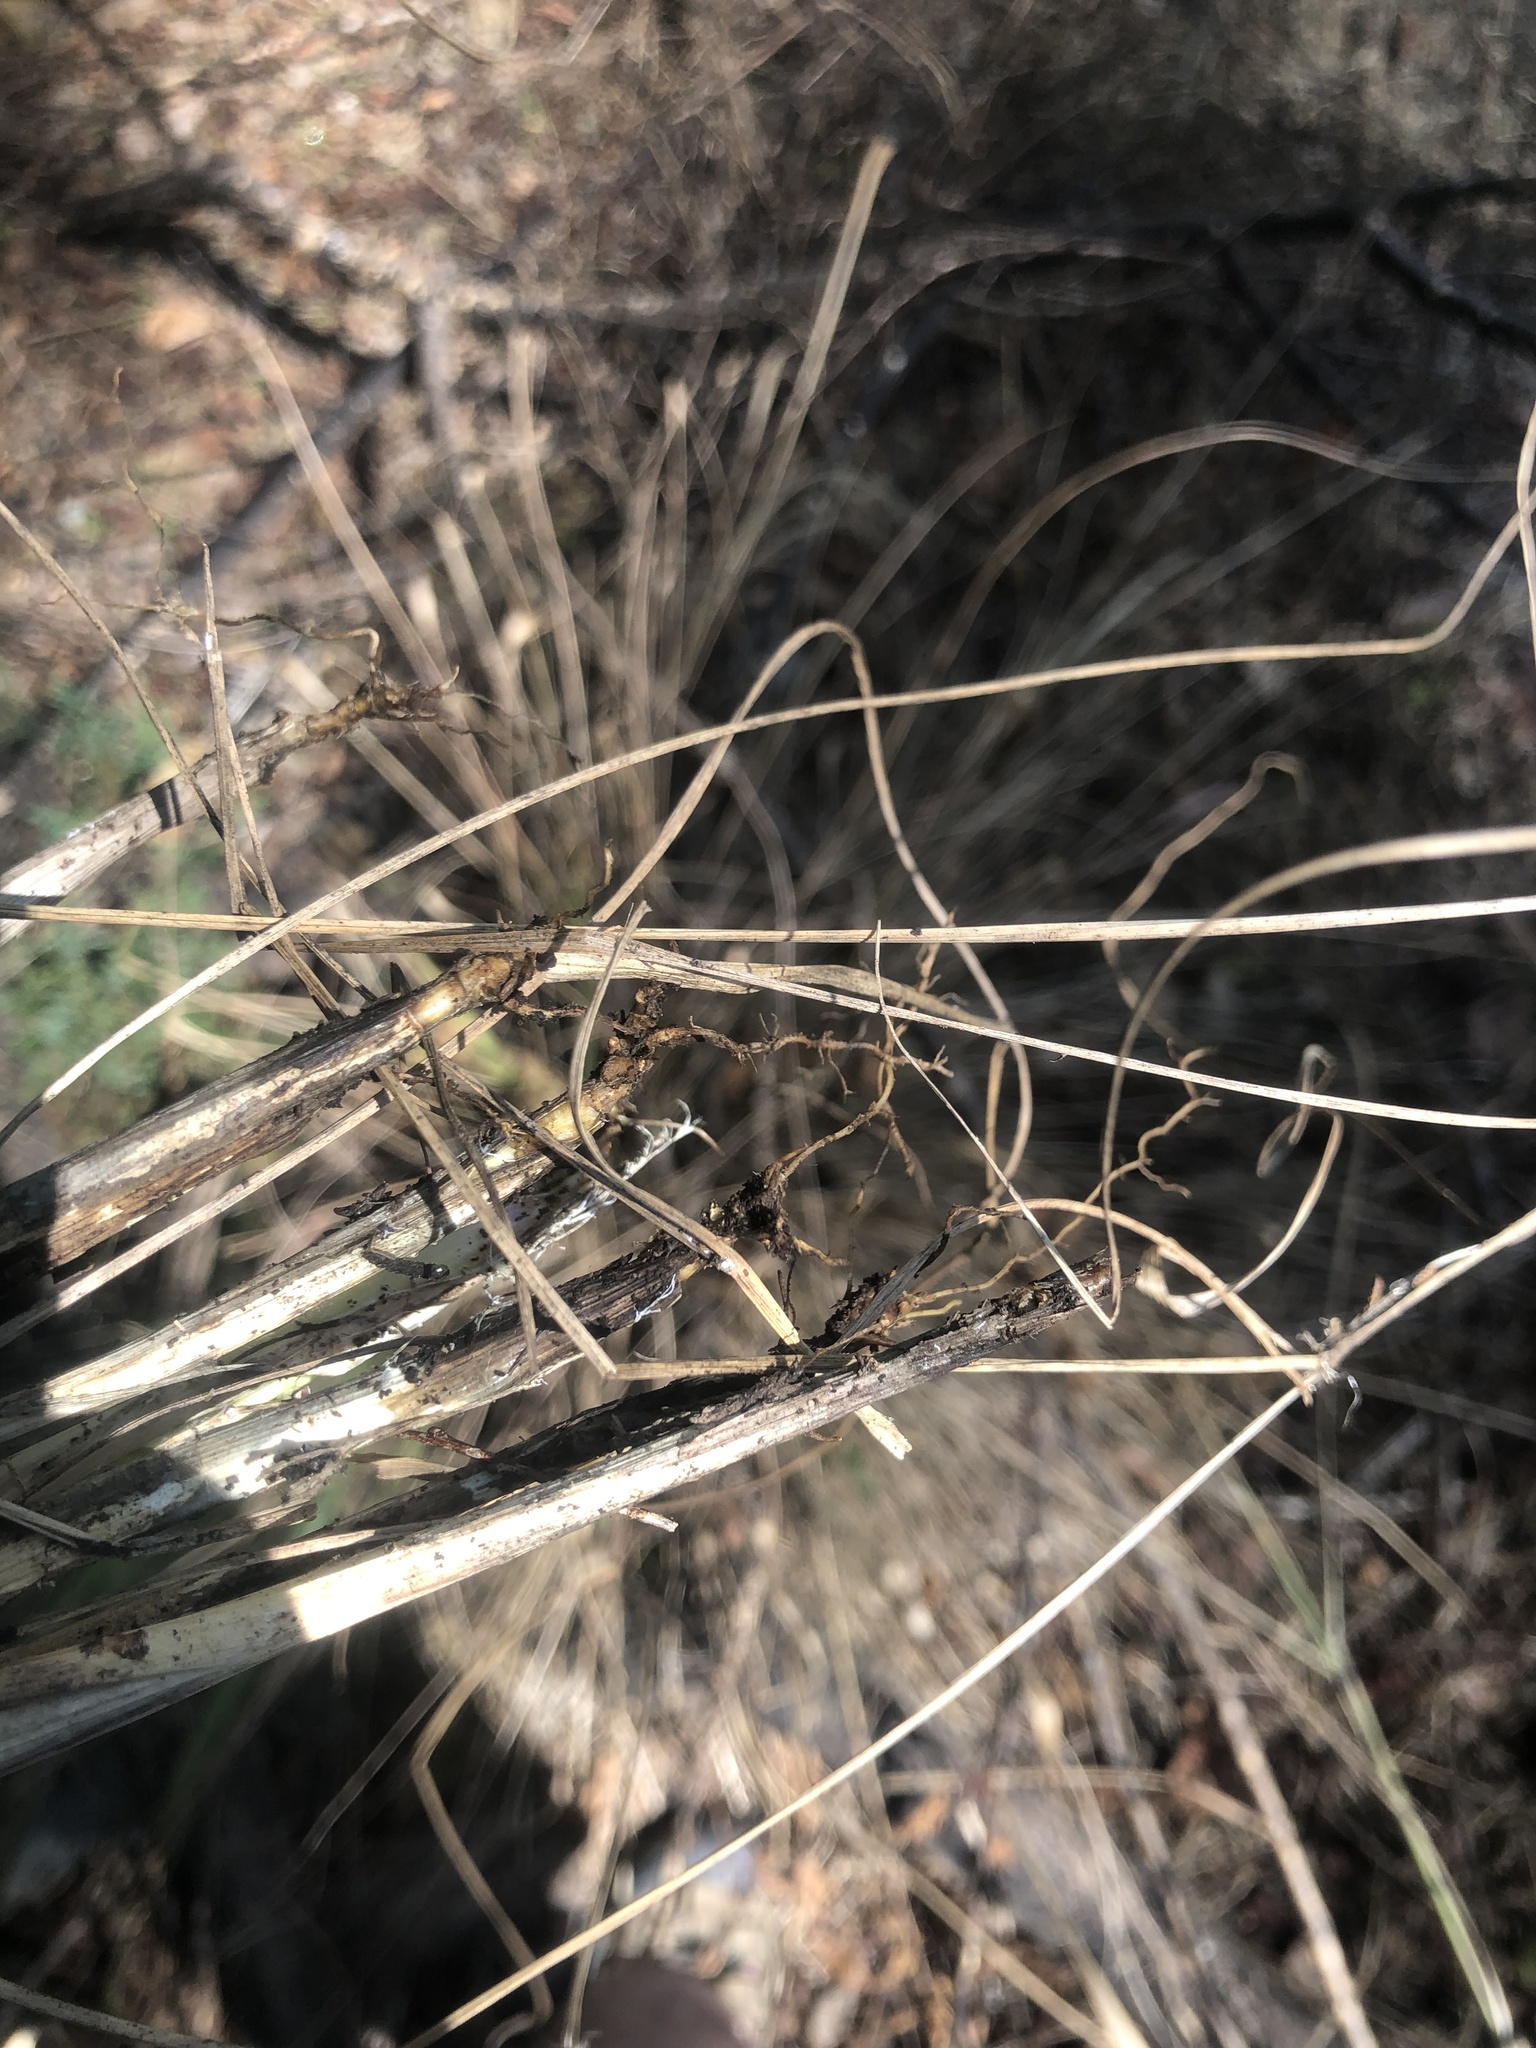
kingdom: Plantae
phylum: Tracheophyta
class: Liliopsida
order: Poales
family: Poaceae
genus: Eragrostis
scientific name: Eragrostis hirsuta
